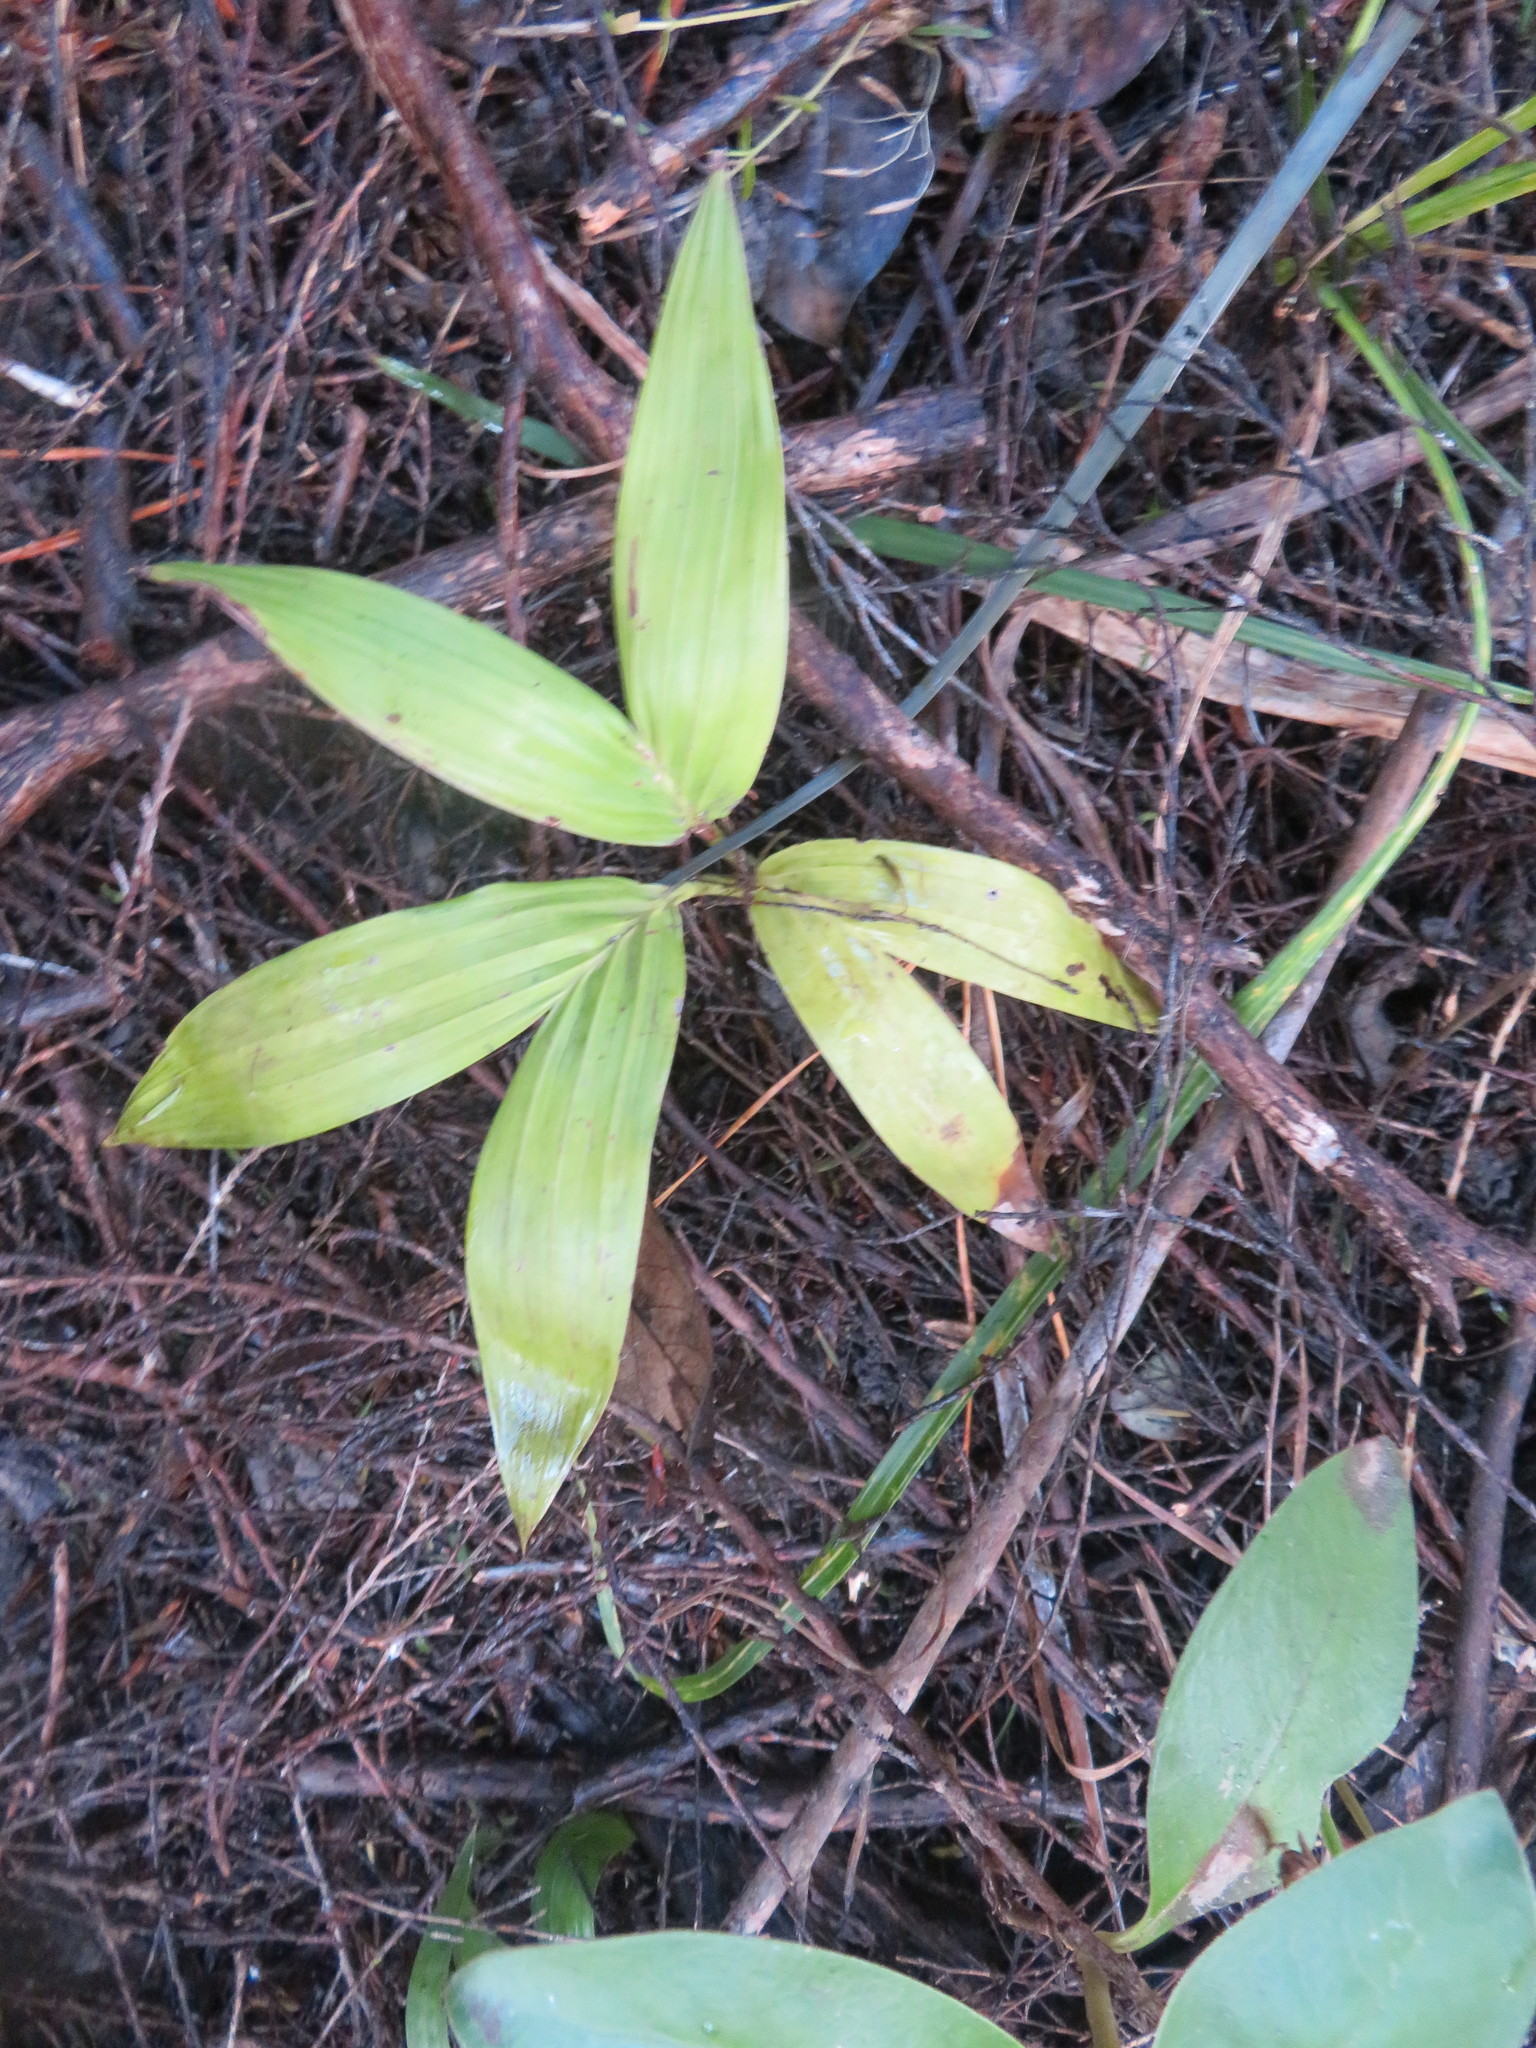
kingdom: Plantae
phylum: Tracheophyta
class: Liliopsida
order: Arecales
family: Arecaceae
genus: Archontophoenix
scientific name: Archontophoenix cunninghamiana
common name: Piccabeen bangalow palm
